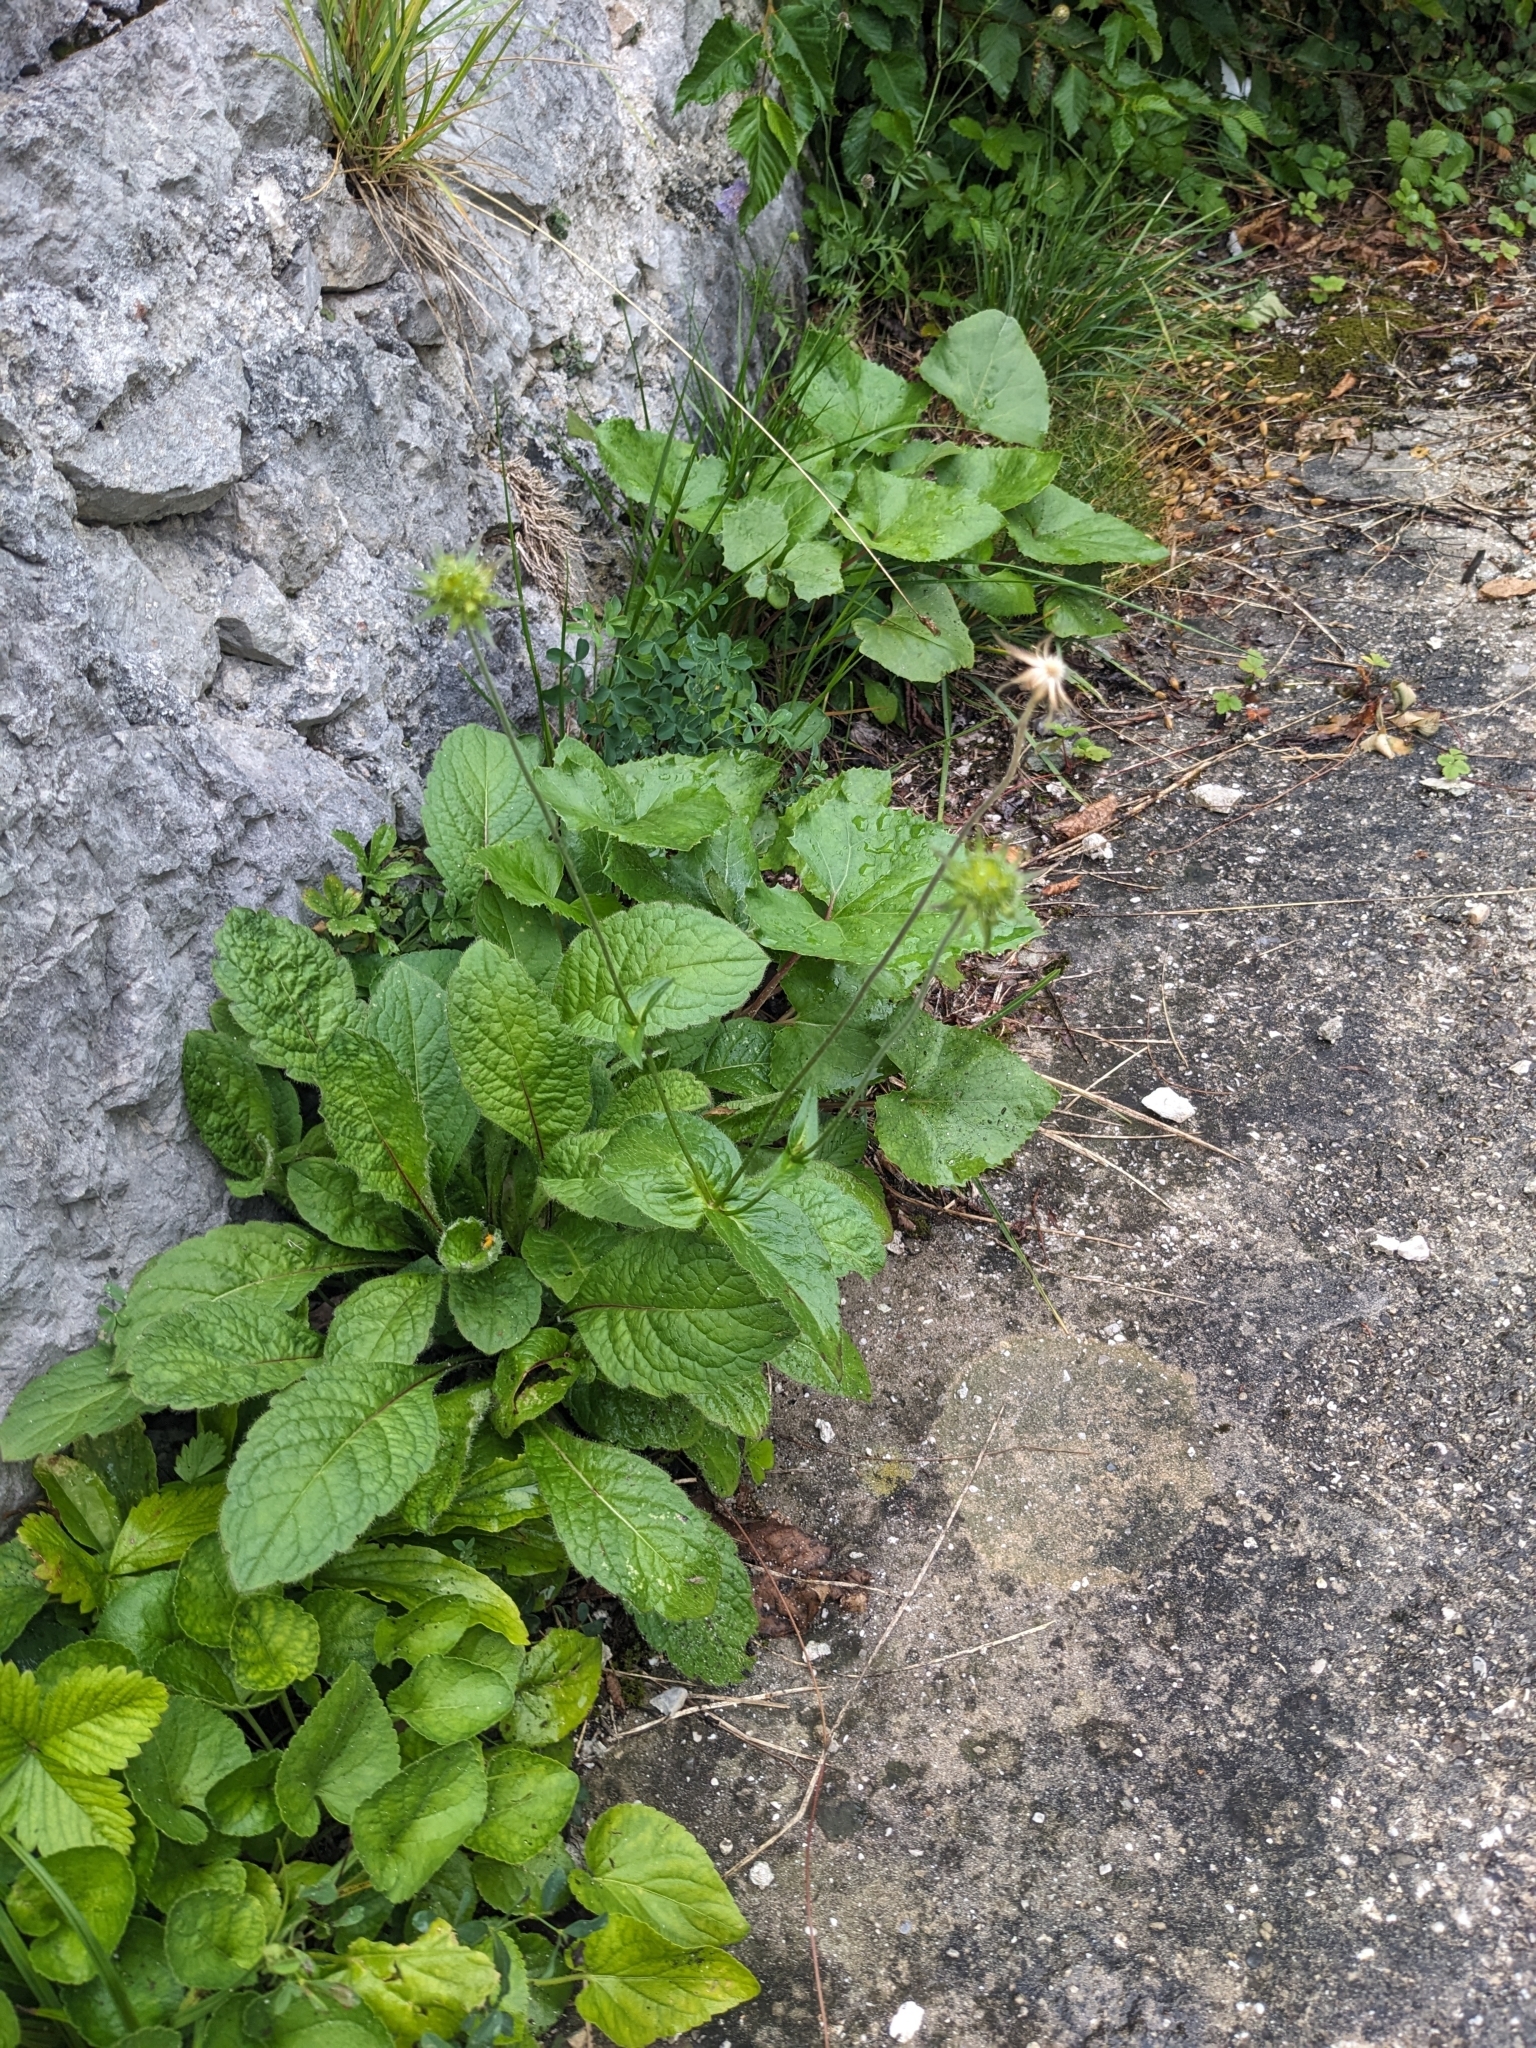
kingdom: Plantae
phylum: Tracheophyta
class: Magnoliopsida
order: Dipsacales
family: Caprifoliaceae
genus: Knautia
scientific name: Knautia drymeia
